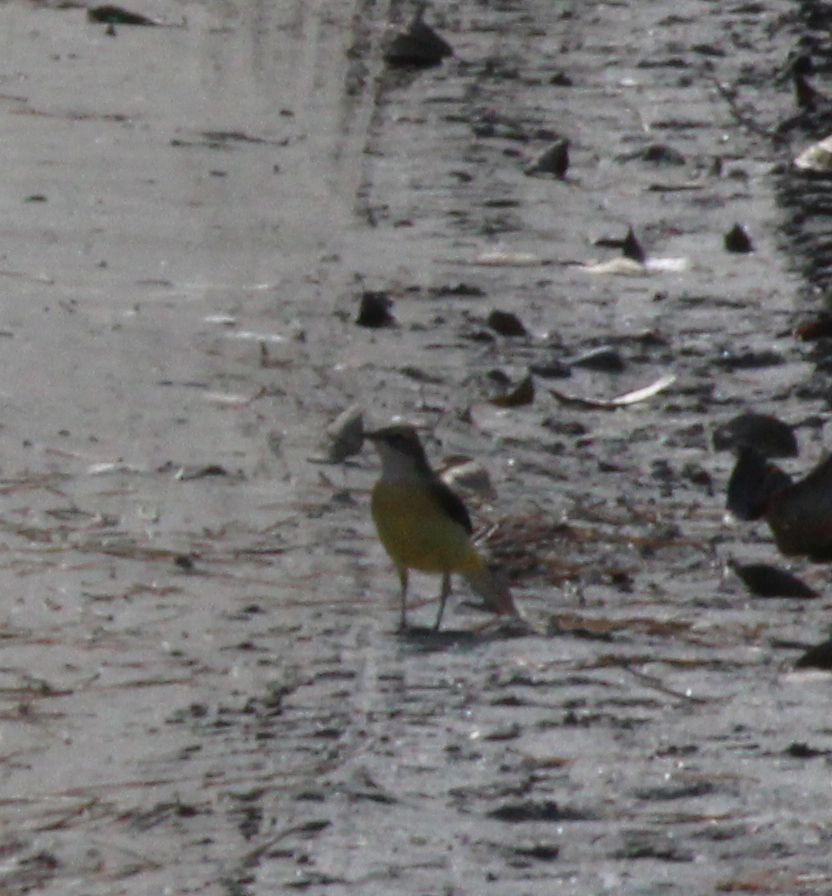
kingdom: Animalia
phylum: Chordata
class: Aves
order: Passeriformes
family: Motacillidae
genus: Motacilla
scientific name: Motacilla cinerea
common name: Grey wagtail
